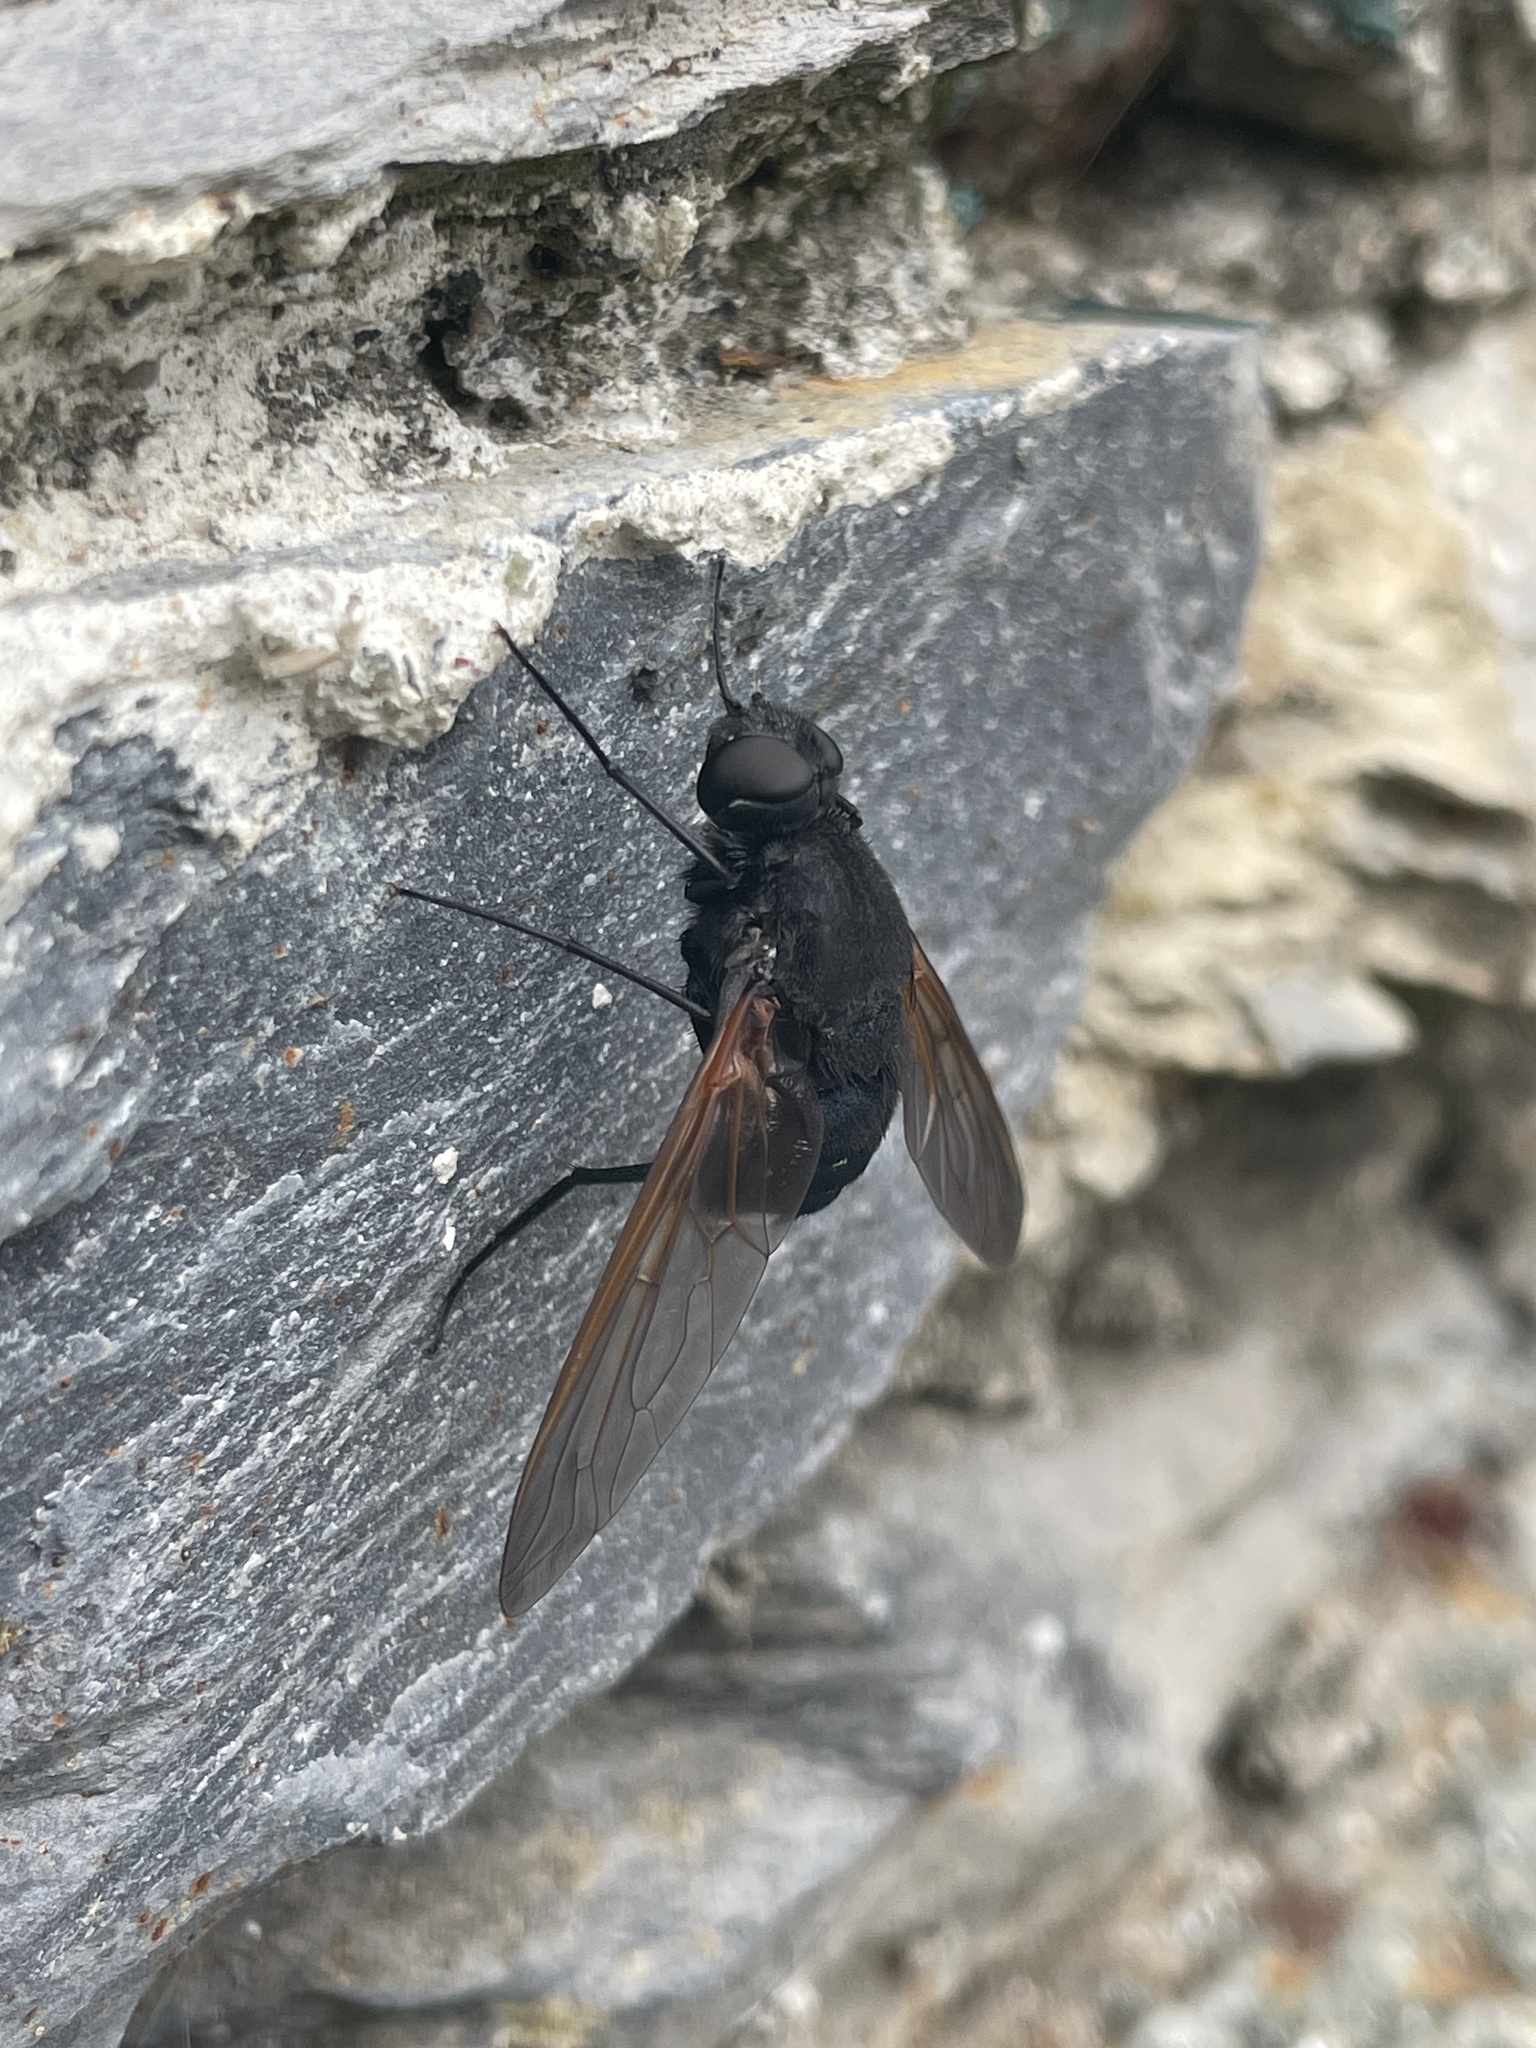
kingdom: Animalia
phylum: Arthropoda
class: Insecta
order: Diptera
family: Bombyliidae
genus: Satyramoeba
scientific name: Satyramoeba hetrusca
